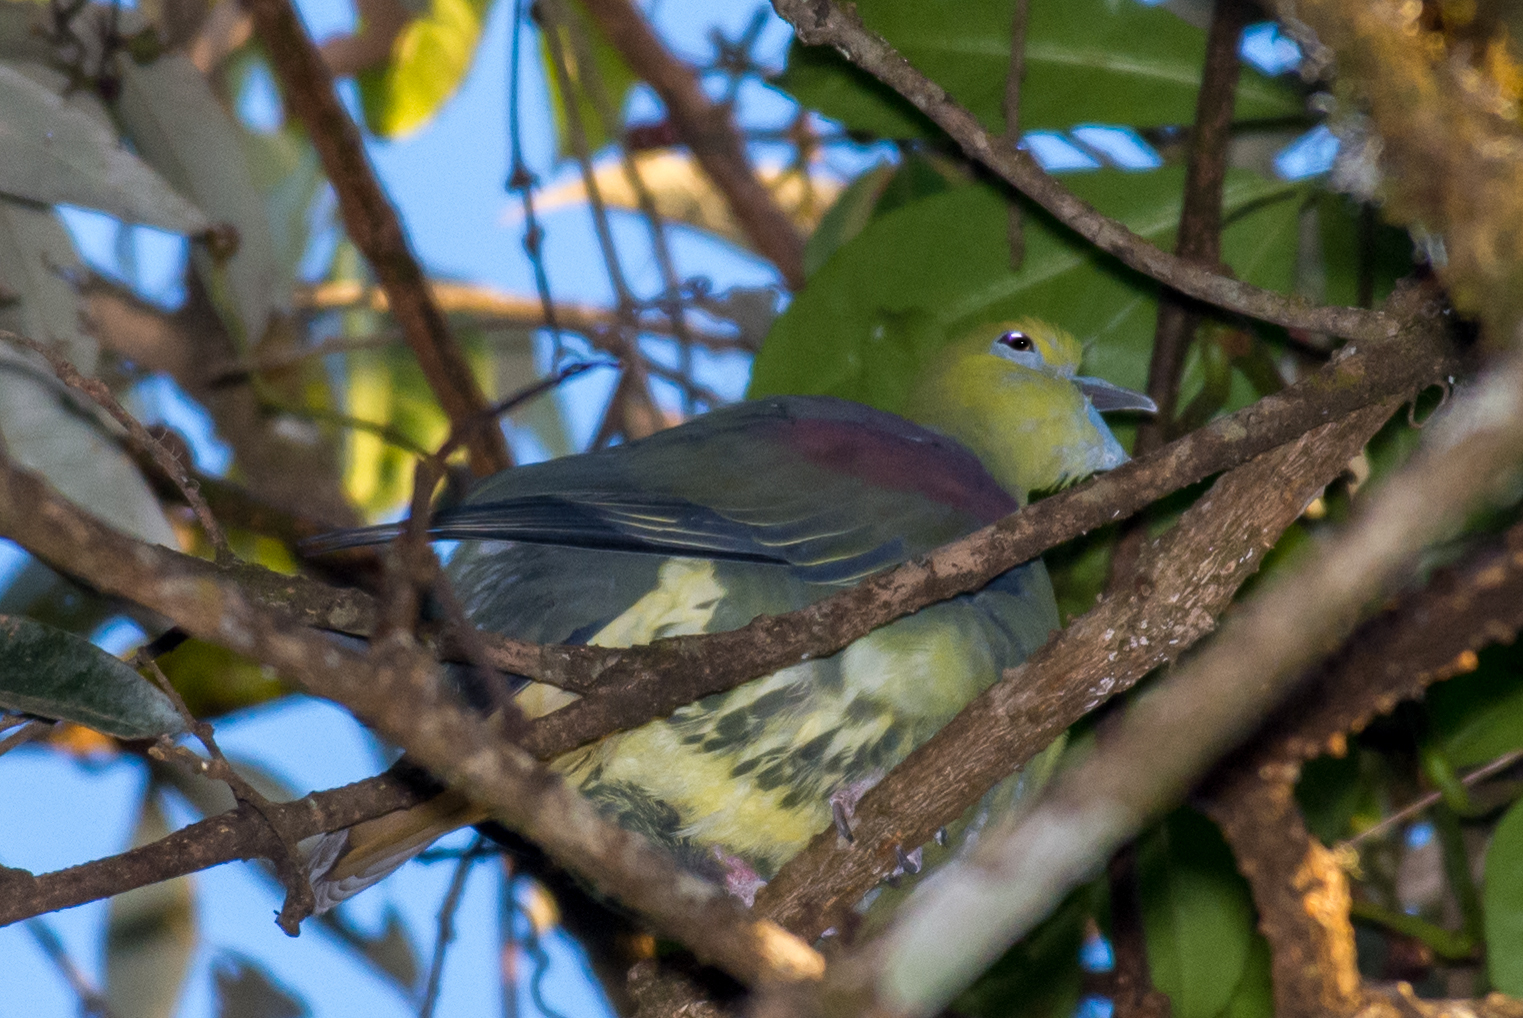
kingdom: Animalia
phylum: Chordata
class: Aves
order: Columbiformes
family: Columbidae
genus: Treron
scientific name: Treron sphenurus
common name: Wedge-tailed green pigeon
